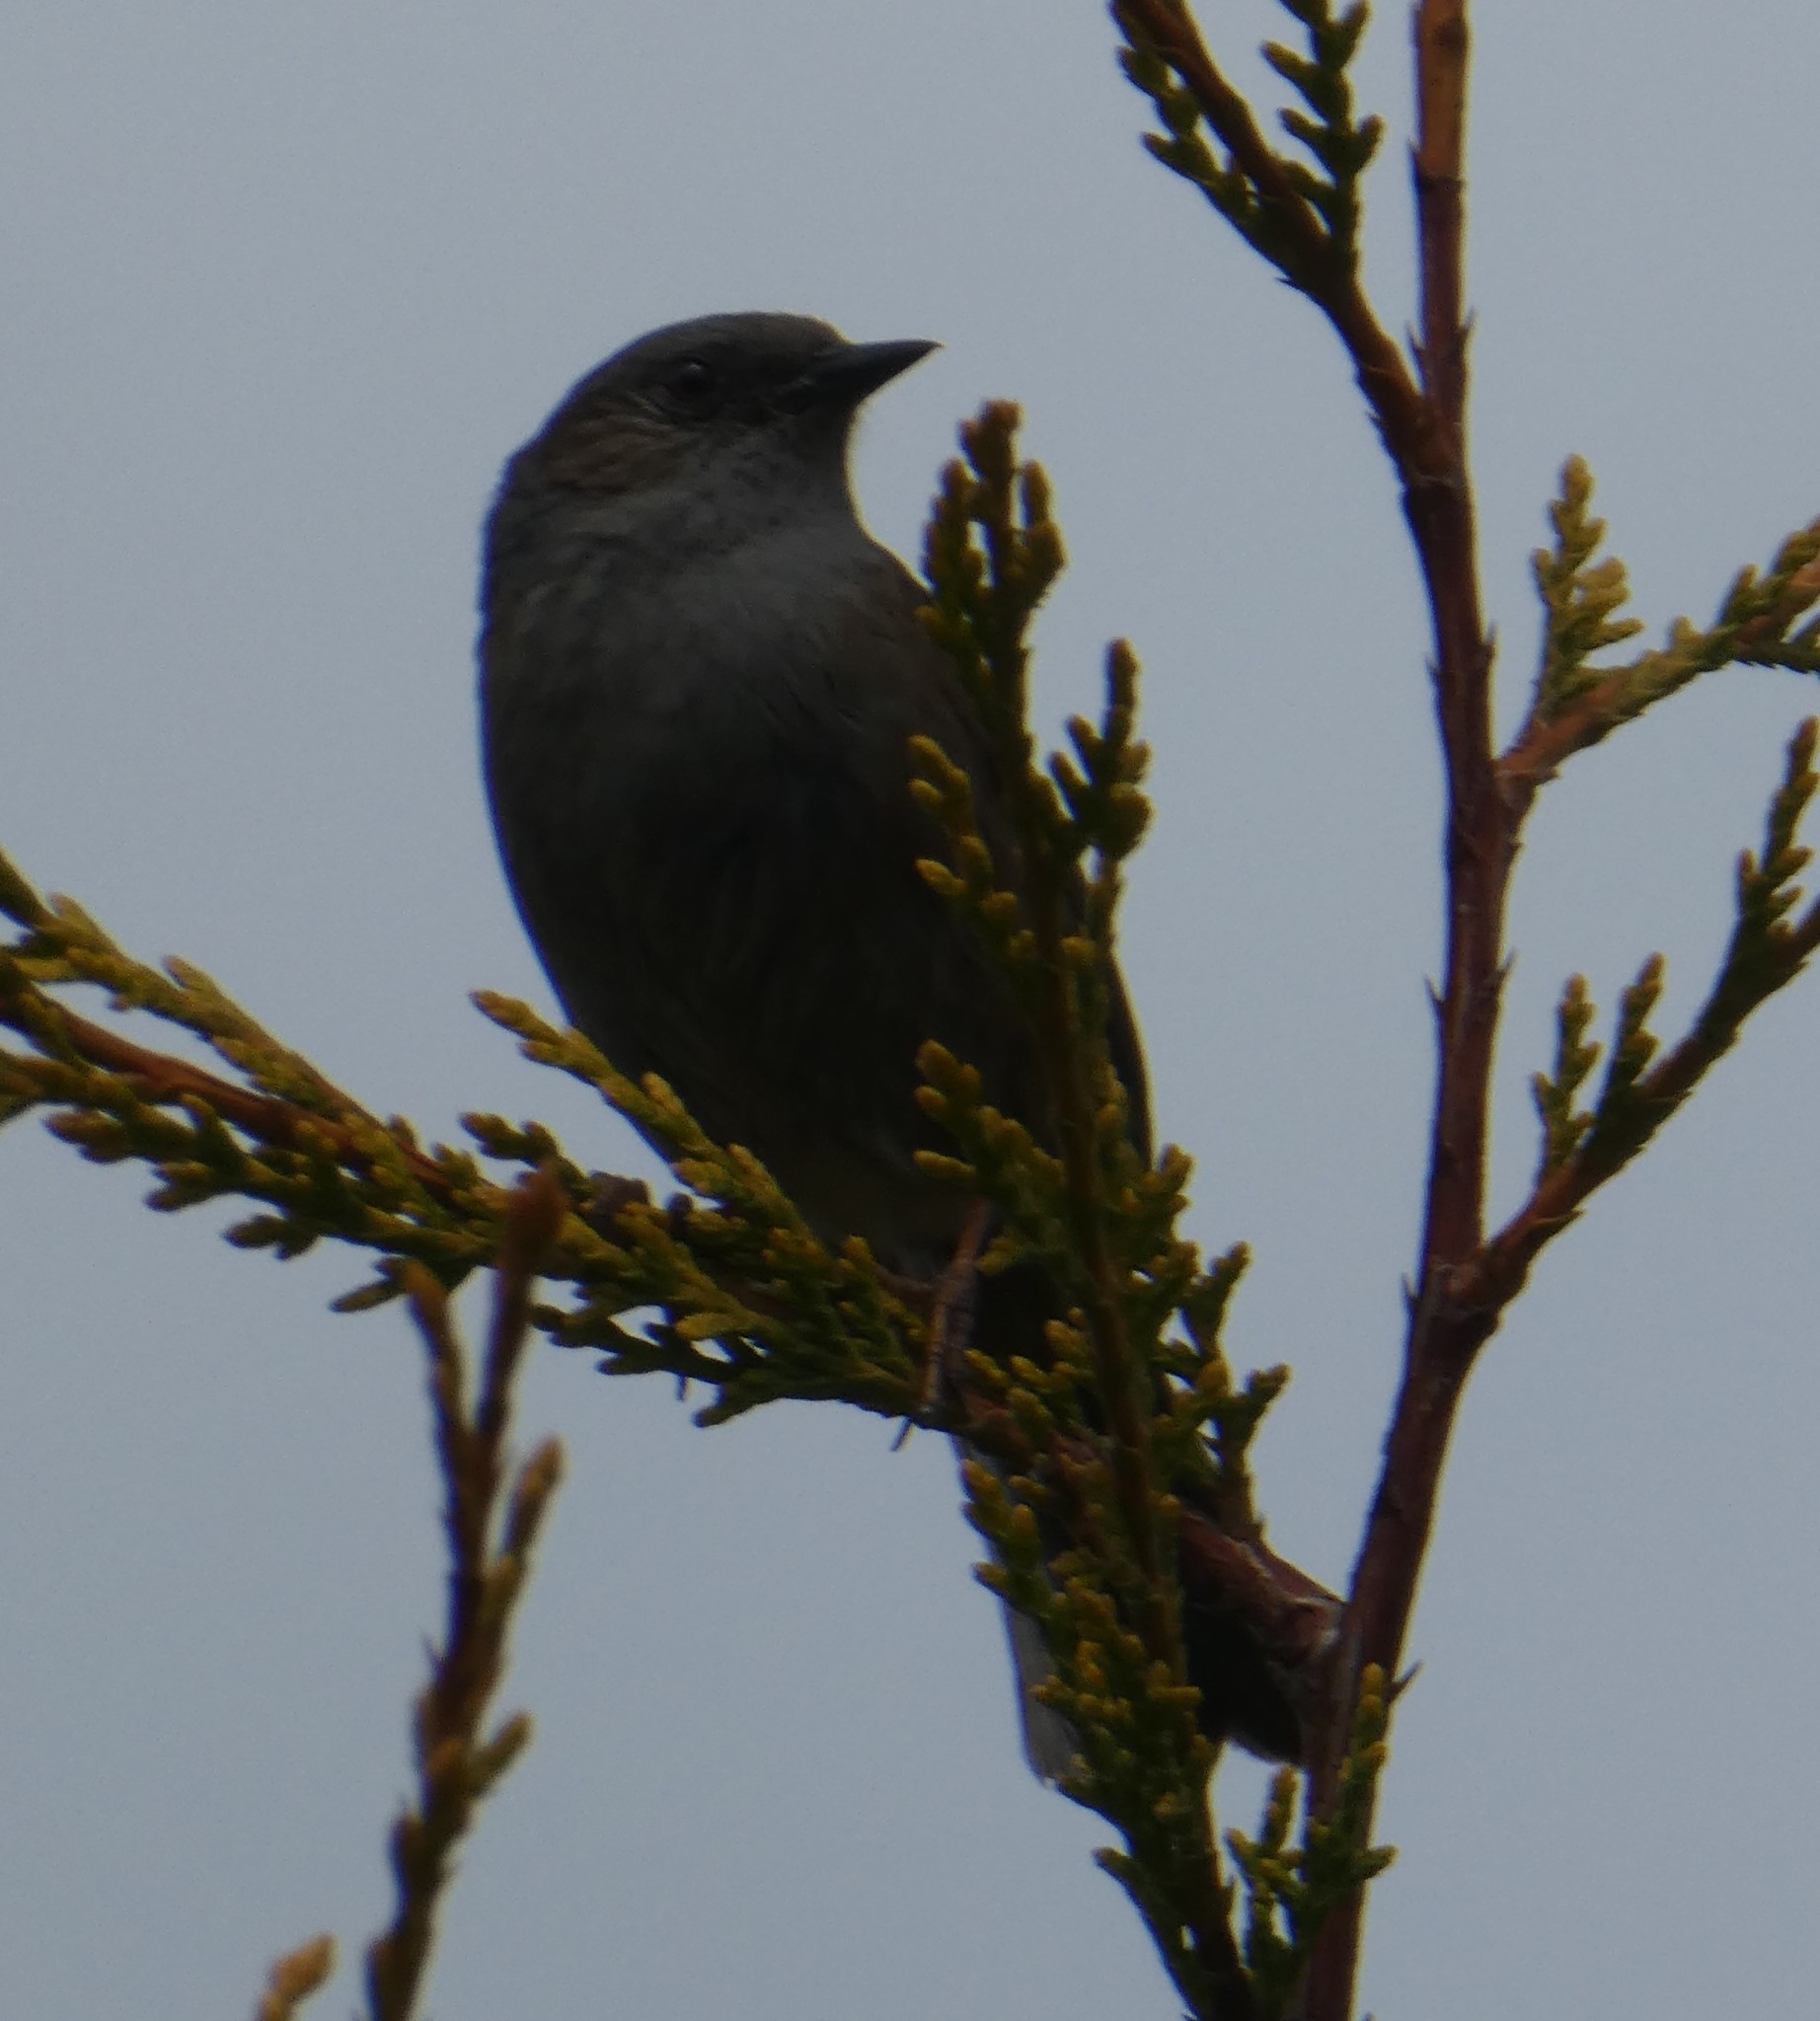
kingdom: Animalia
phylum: Chordata
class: Aves
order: Passeriformes
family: Prunellidae
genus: Prunella
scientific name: Prunella modularis
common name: Dunnock
